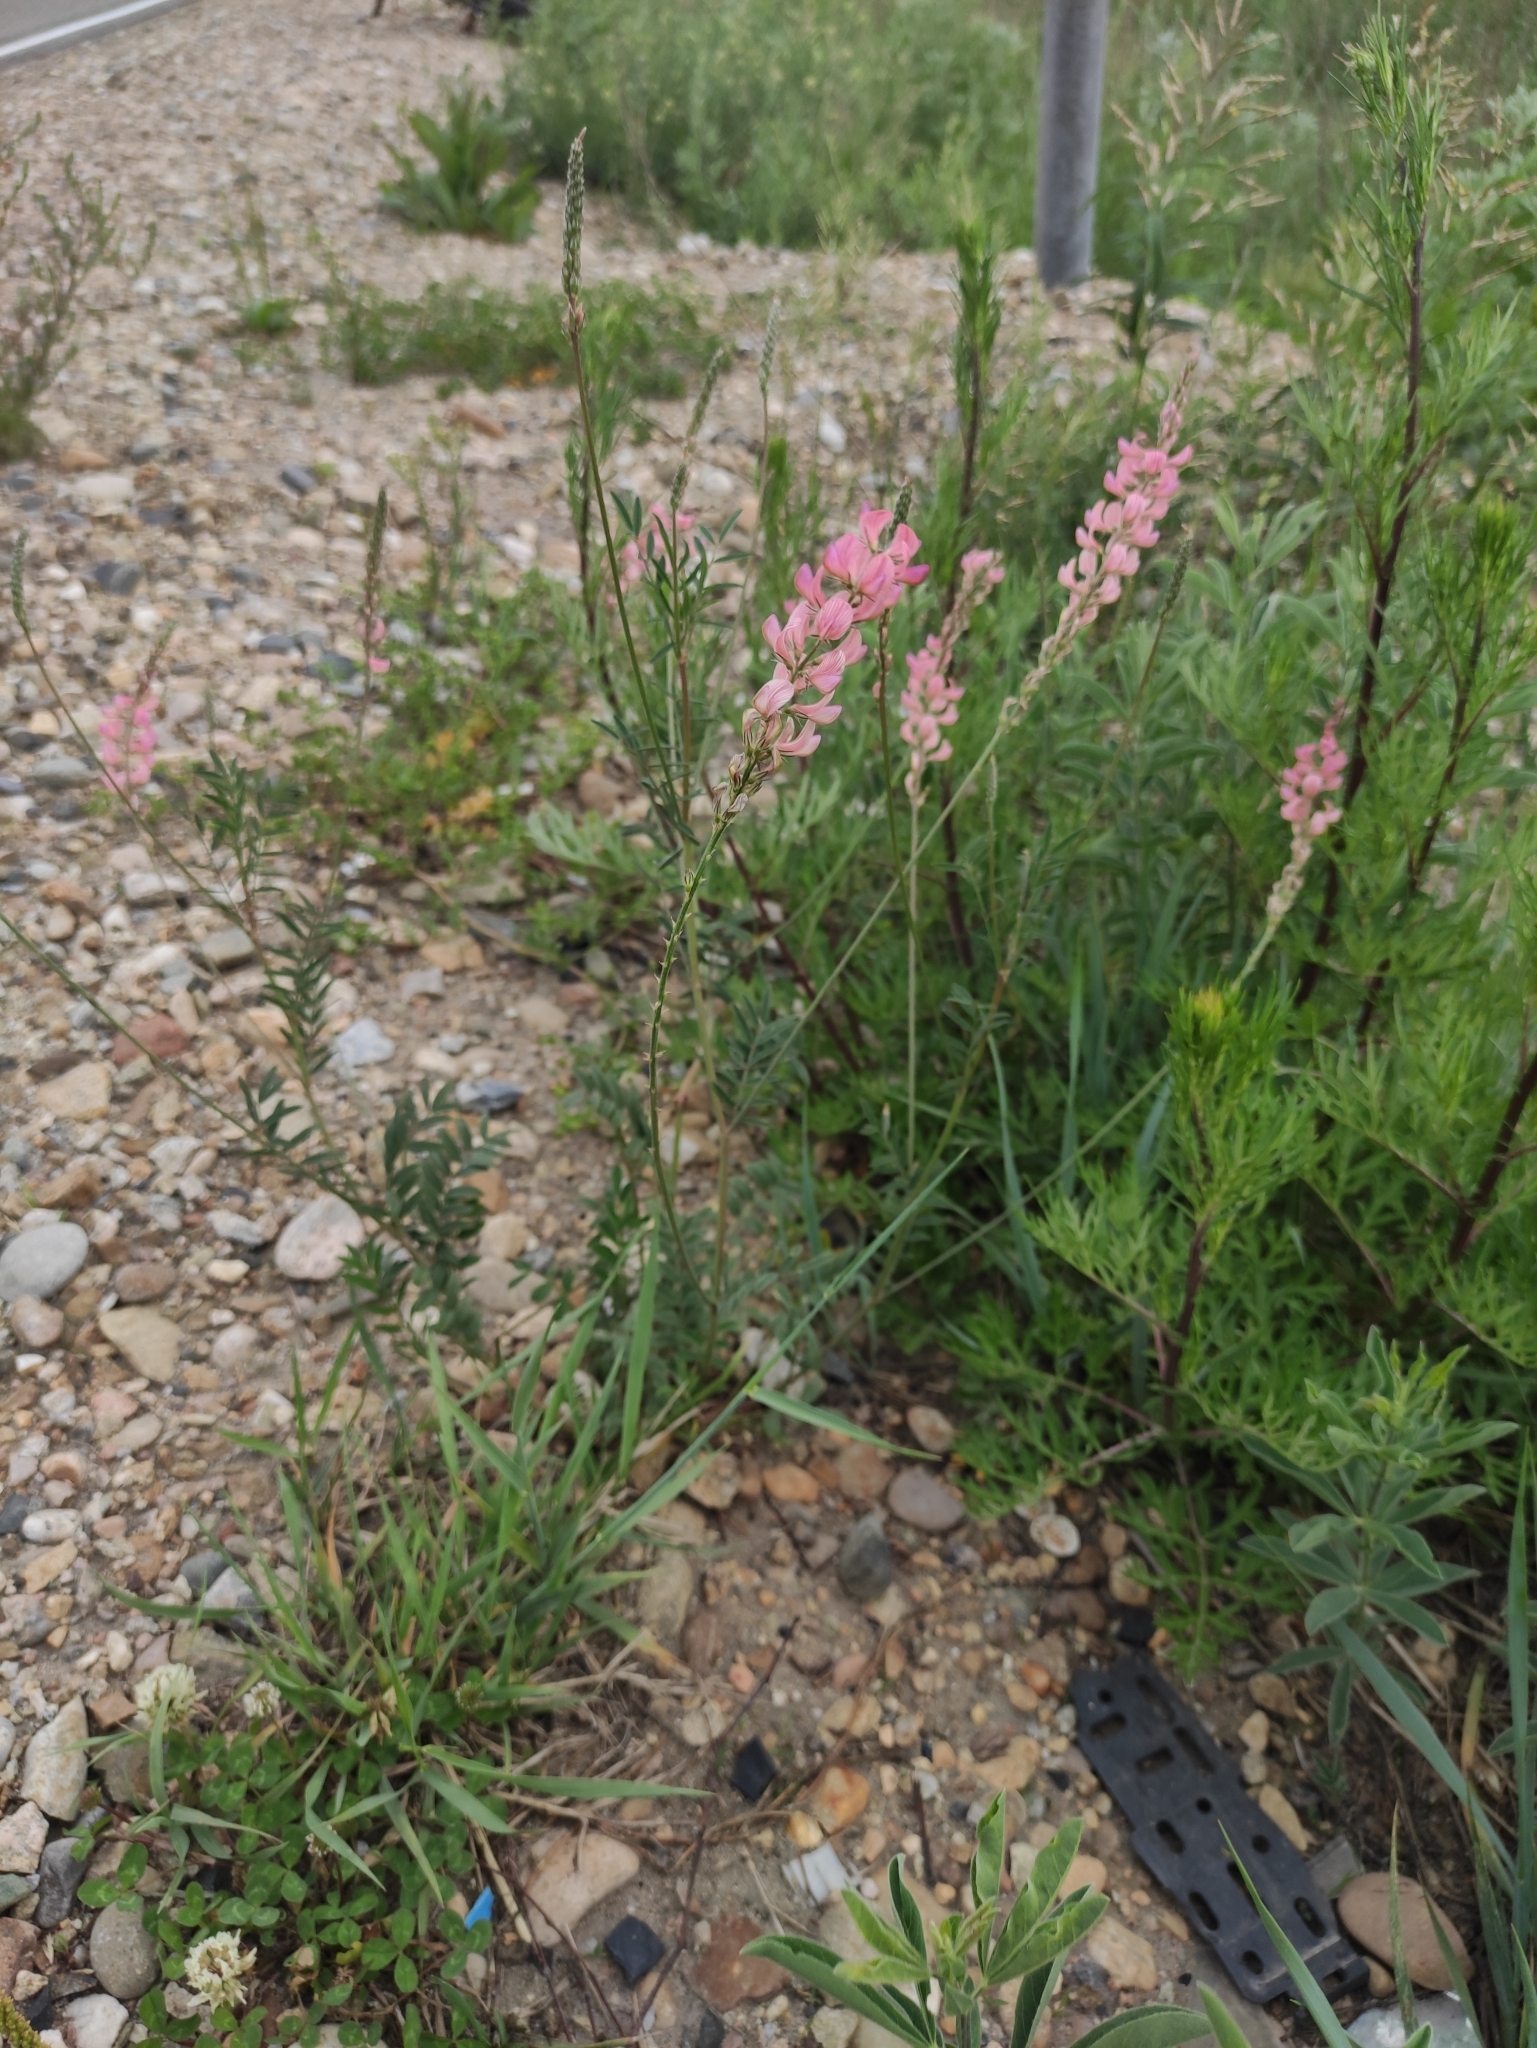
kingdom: Plantae
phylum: Tracheophyta
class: Magnoliopsida
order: Fabales
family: Fabaceae
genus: Onobrychis
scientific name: Onobrychis arenaria
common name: Sand esparcet
